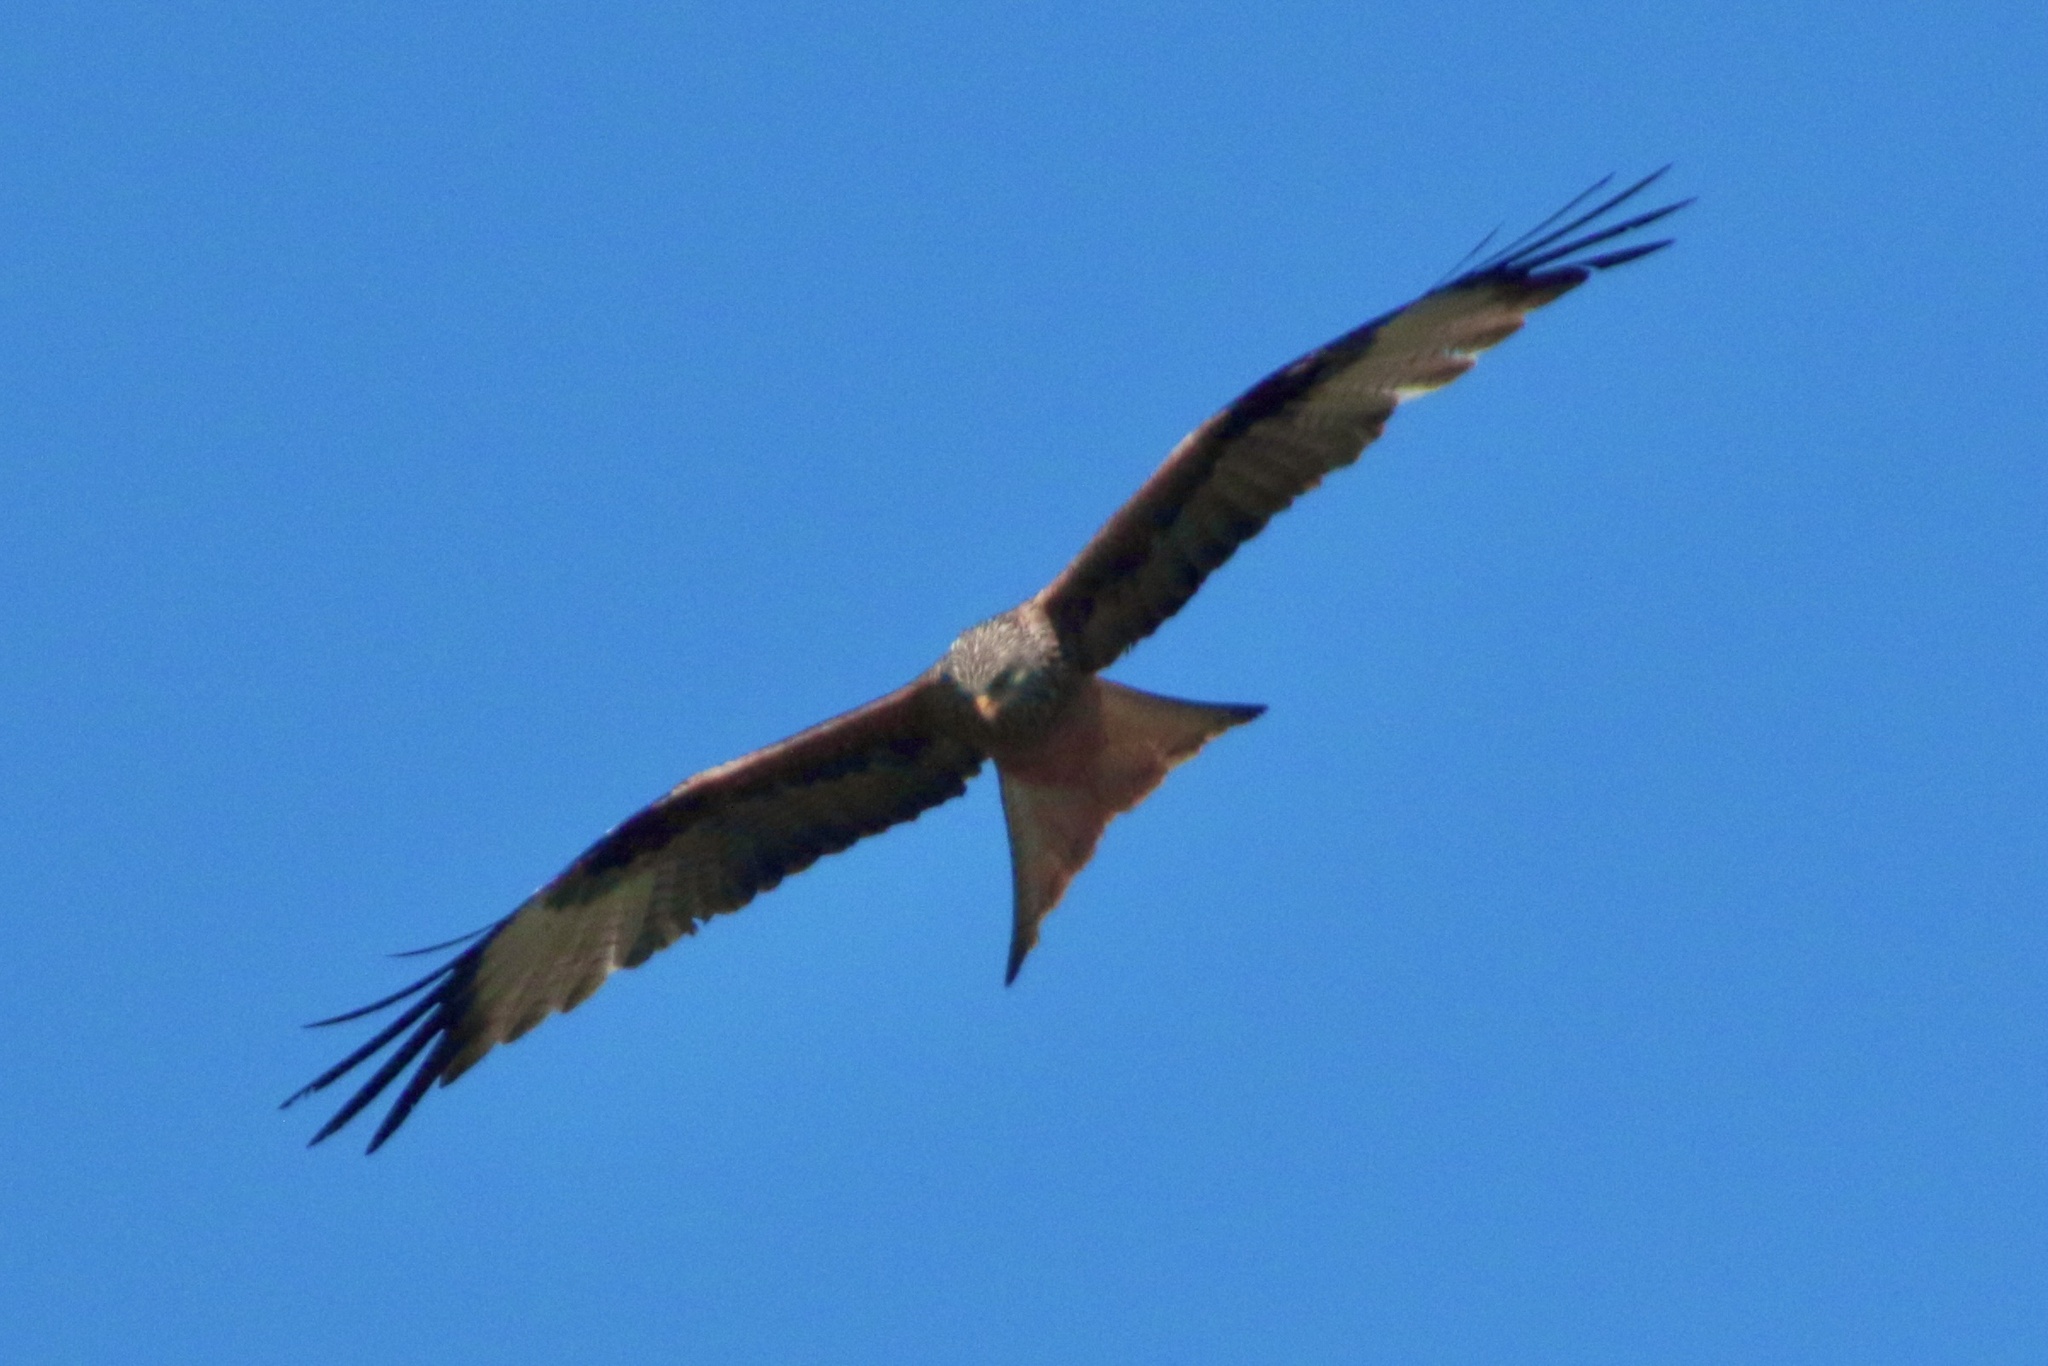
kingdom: Animalia
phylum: Chordata
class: Aves
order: Accipitriformes
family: Accipitridae
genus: Milvus
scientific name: Milvus milvus
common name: Red kite
